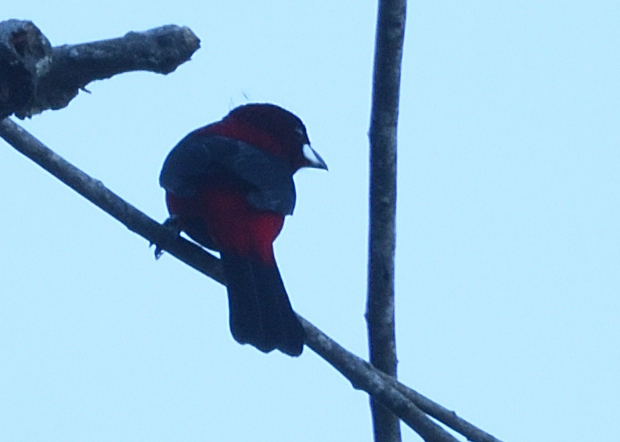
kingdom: Animalia
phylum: Chordata
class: Aves
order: Passeriformes
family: Thraupidae
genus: Ramphocelus
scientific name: Ramphocelus dimidiatus
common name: Crimson-backed tanager
